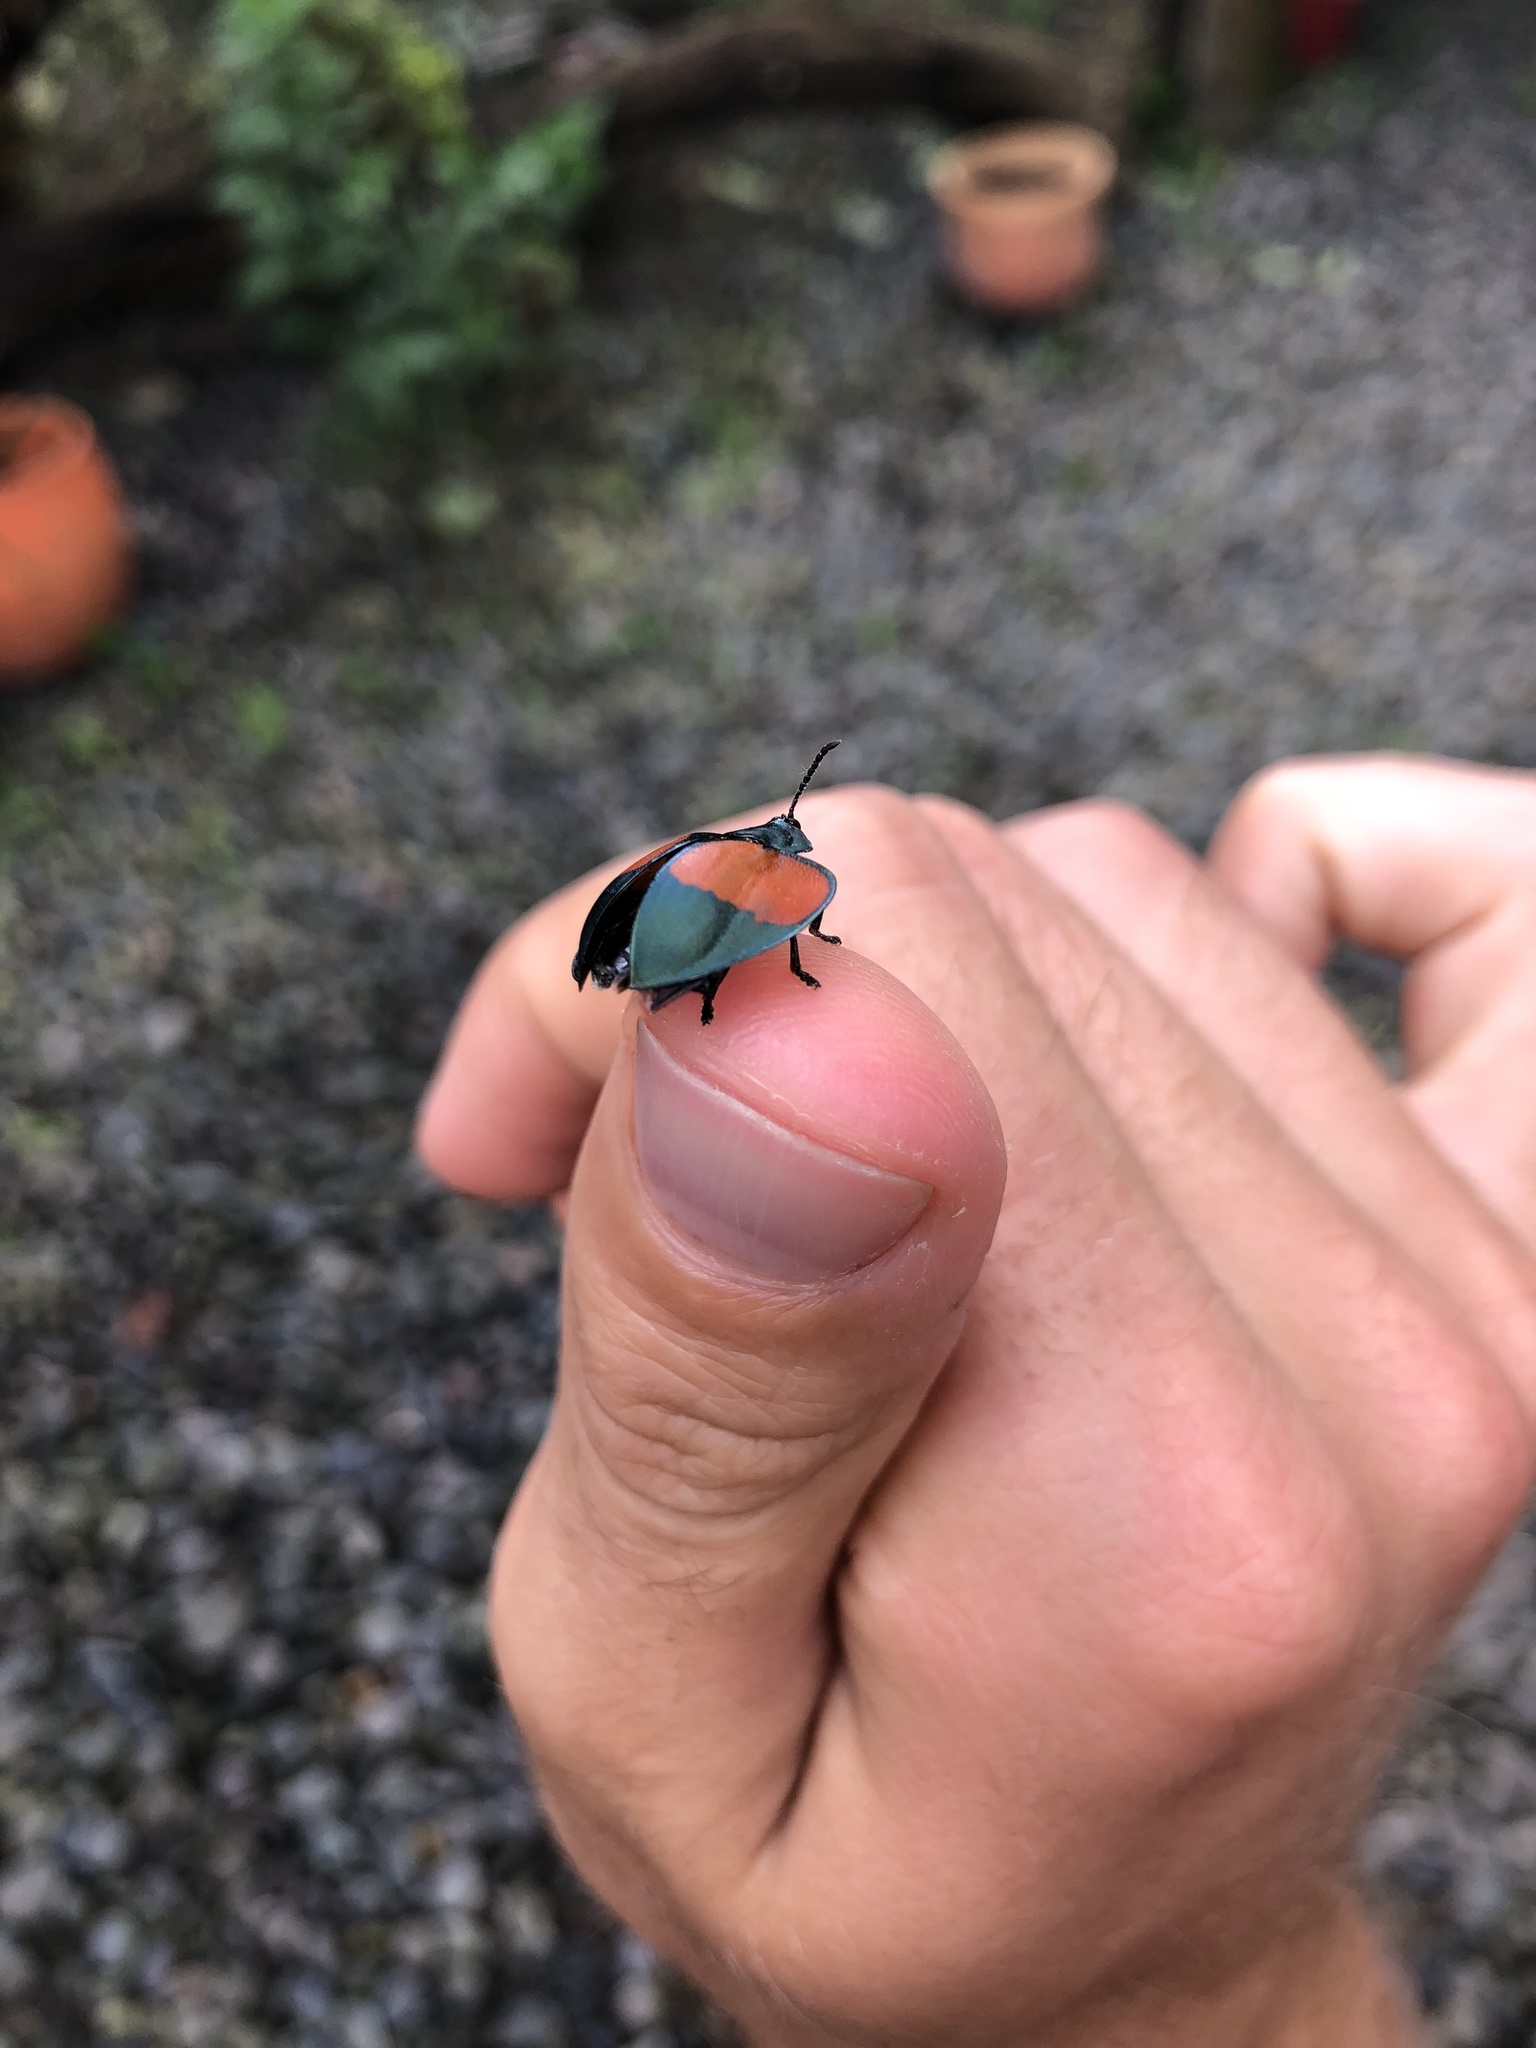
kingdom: Animalia
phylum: Arthropoda
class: Insecta
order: Coleoptera
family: Chrysomelidae
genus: Echoma
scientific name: Echoma bonfilsii
